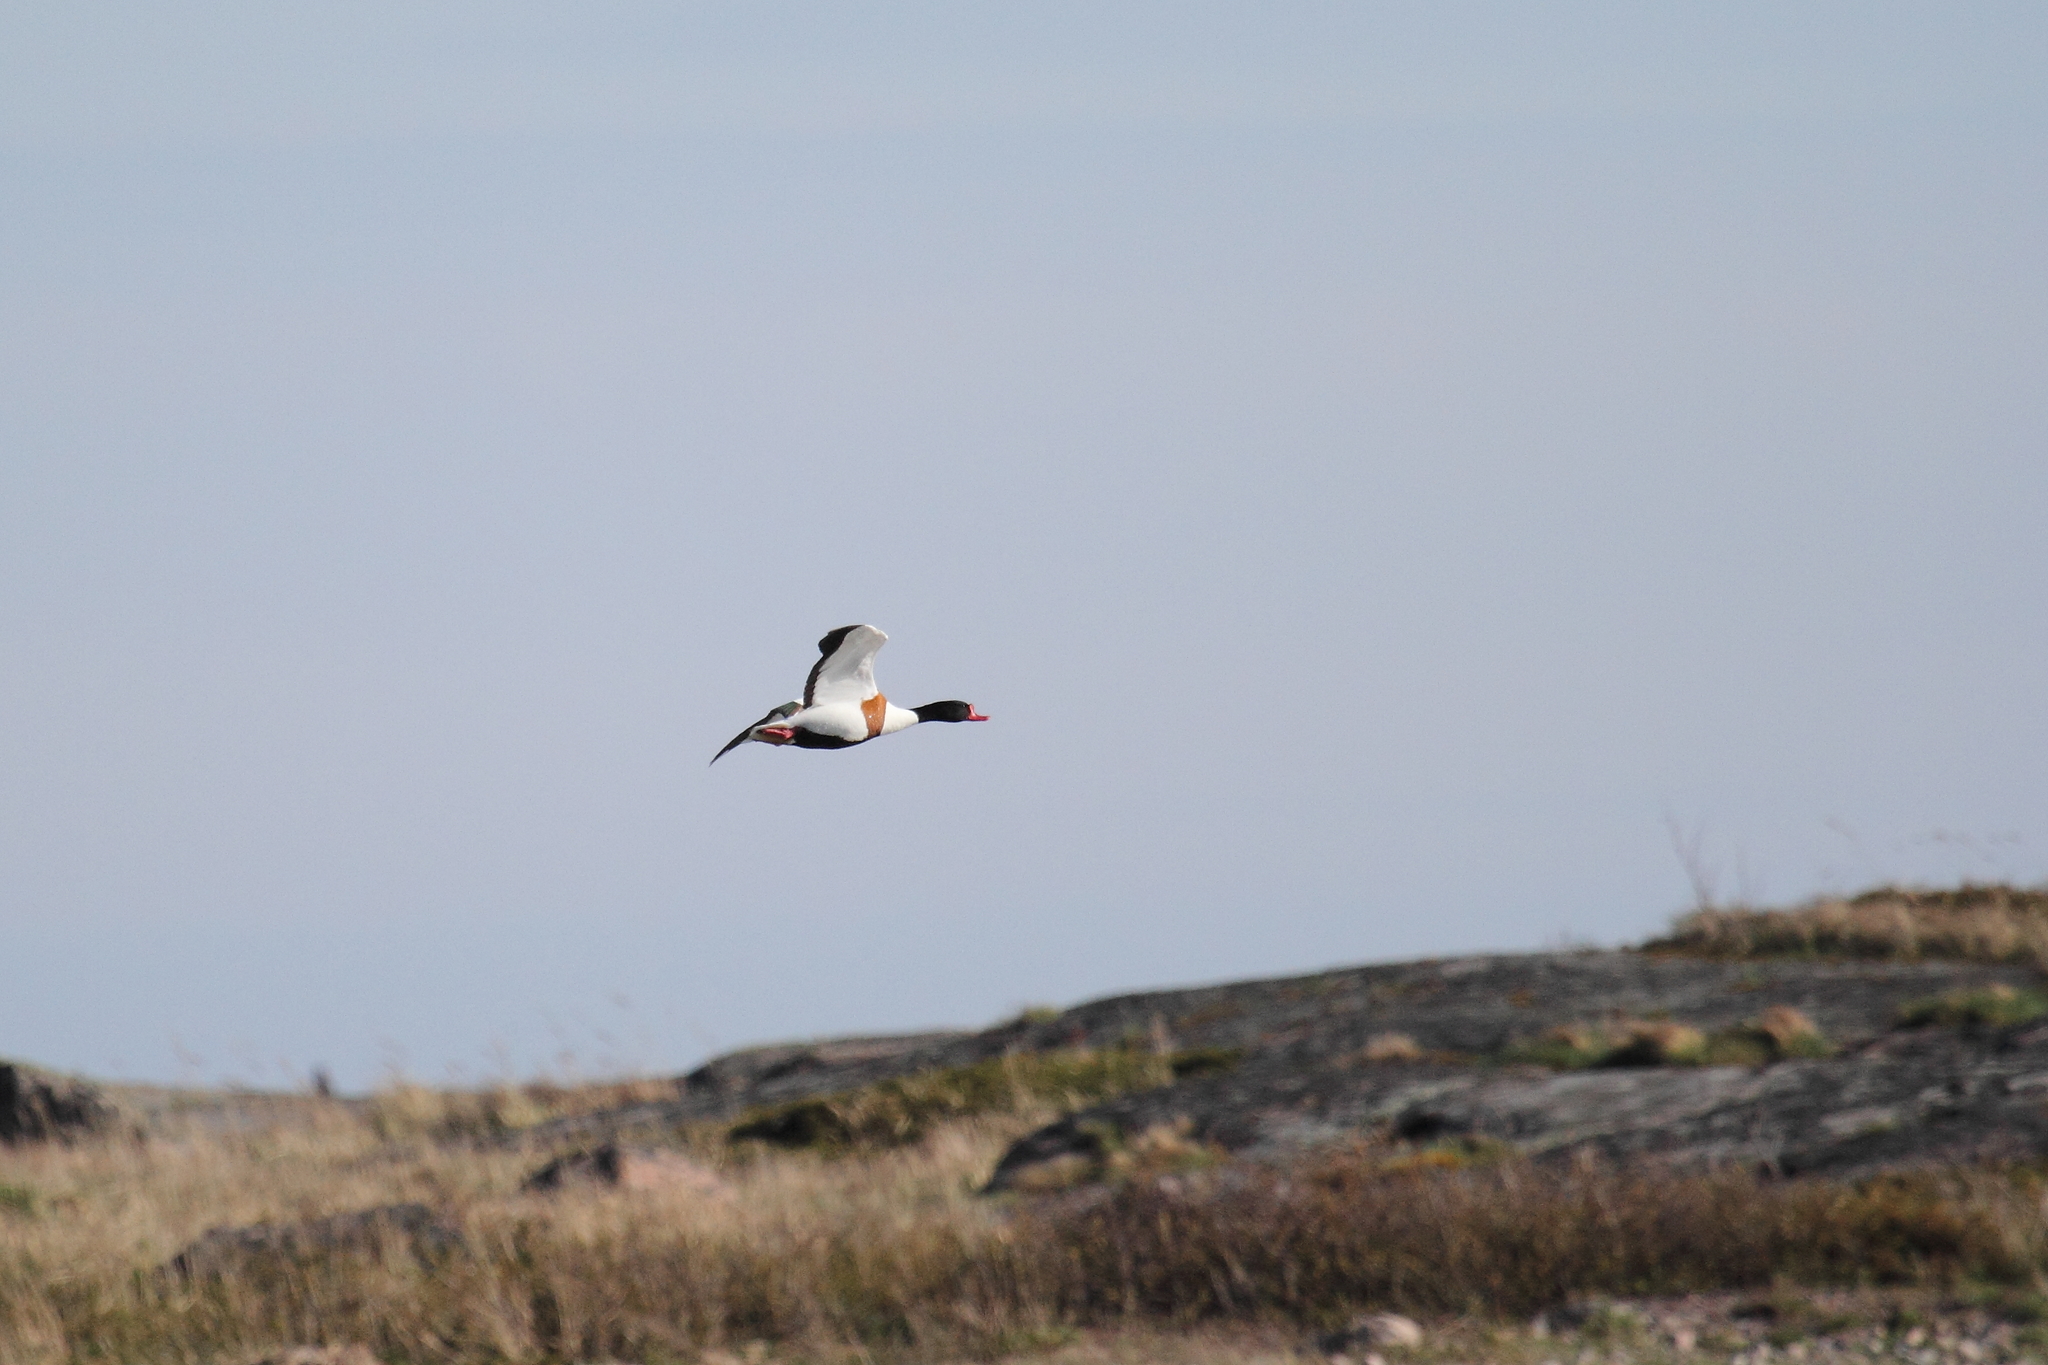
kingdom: Animalia
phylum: Chordata
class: Aves
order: Anseriformes
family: Anatidae
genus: Tadorna
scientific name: Tadorna tadorna
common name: Common shelduck
